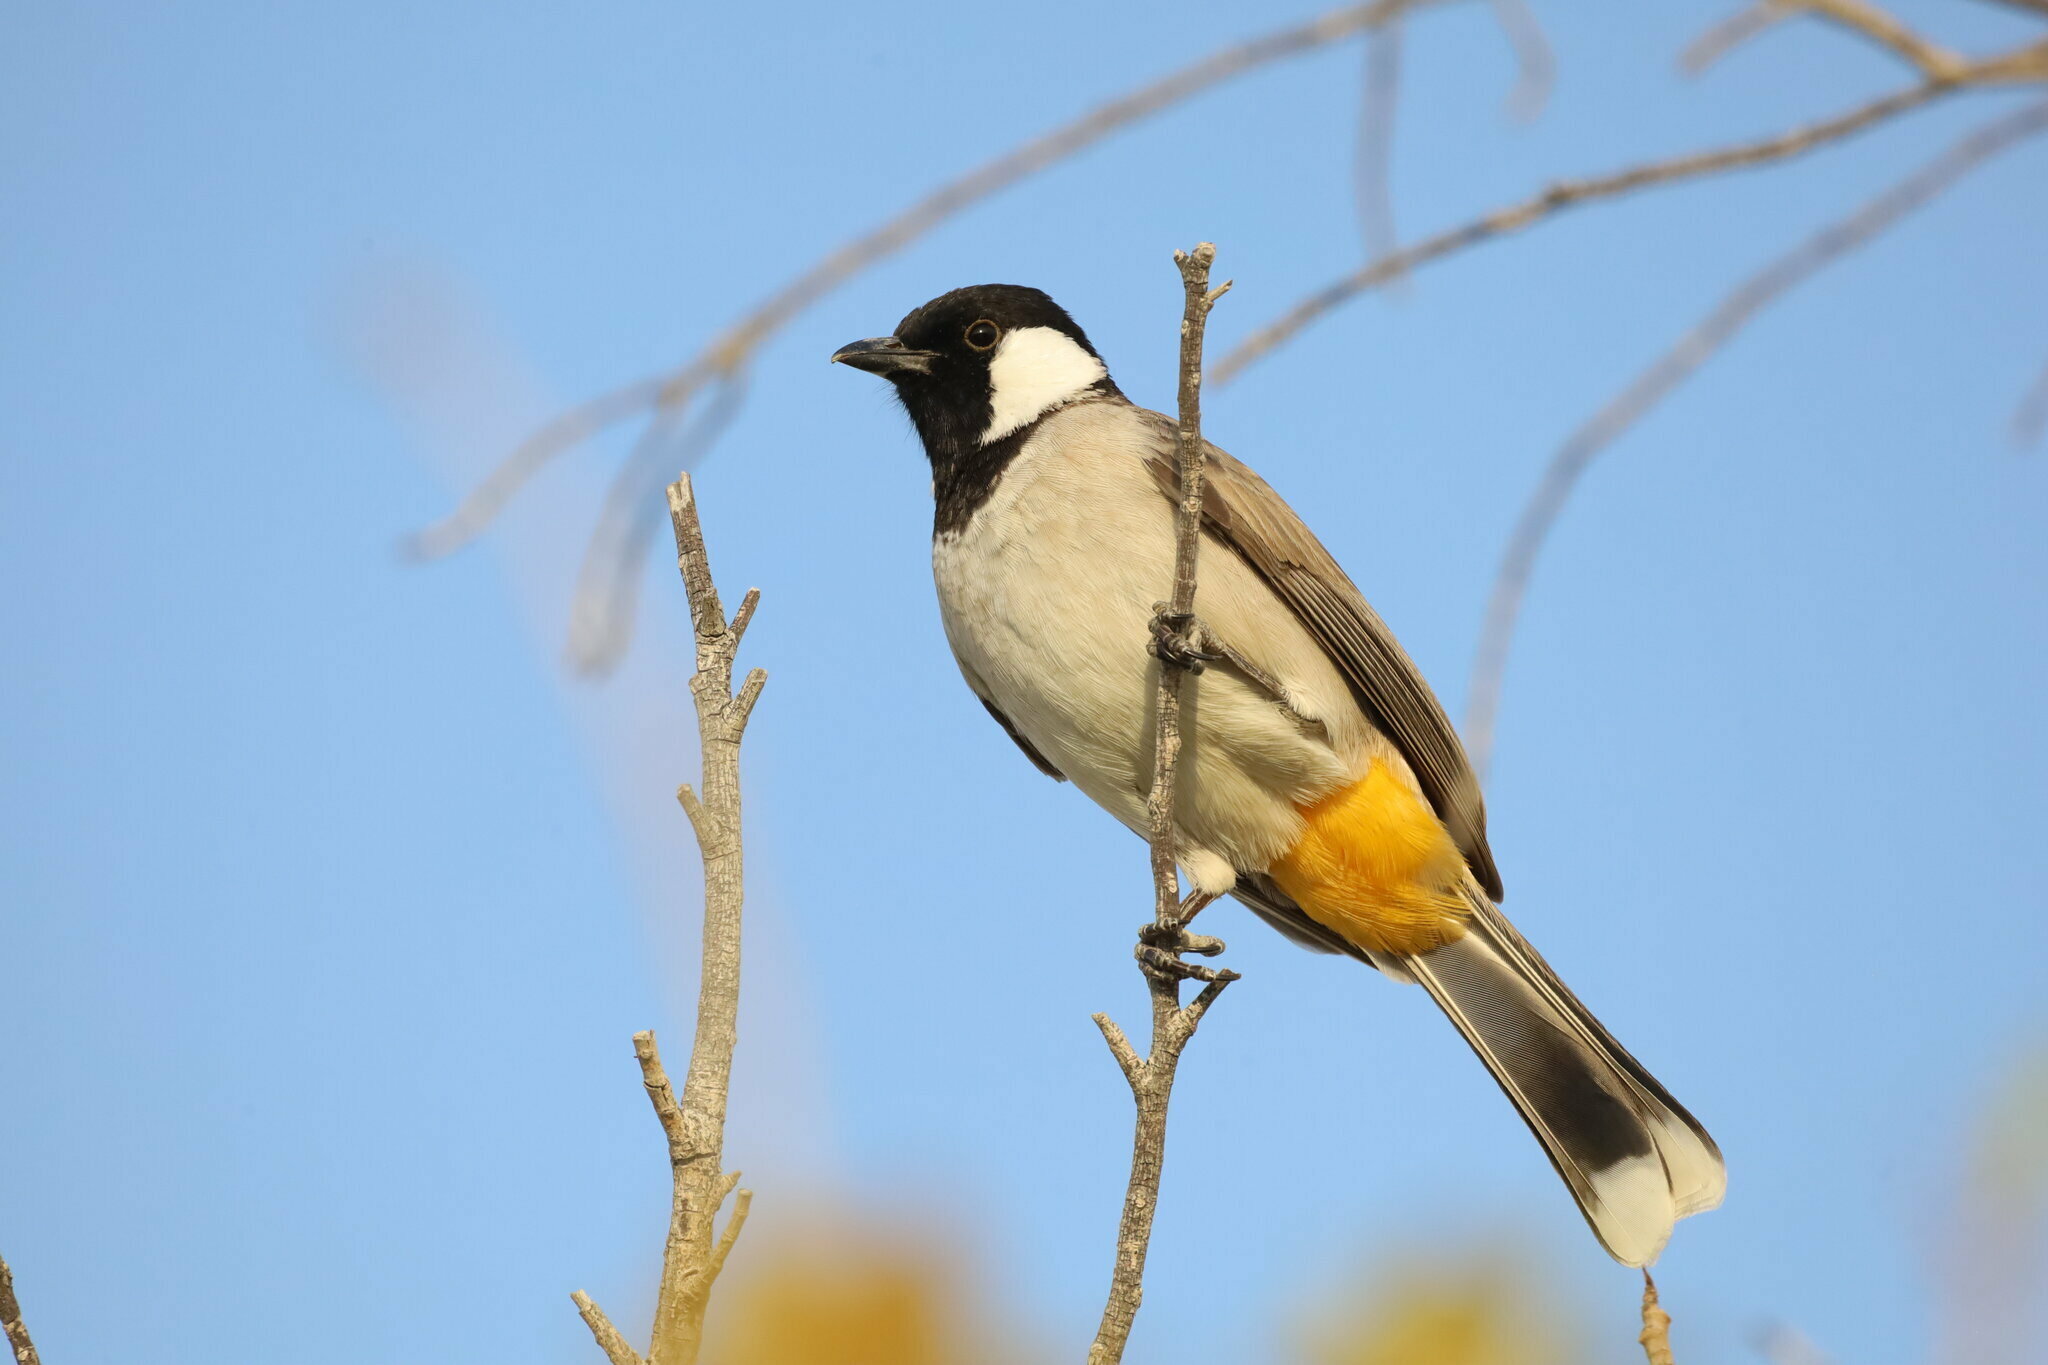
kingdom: Animalia
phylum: Chordata
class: Aves
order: Passeriformes
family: Pycnonotidae
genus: Pycnonotus
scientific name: Pycnonotus leucotis
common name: White-eared bulbul
